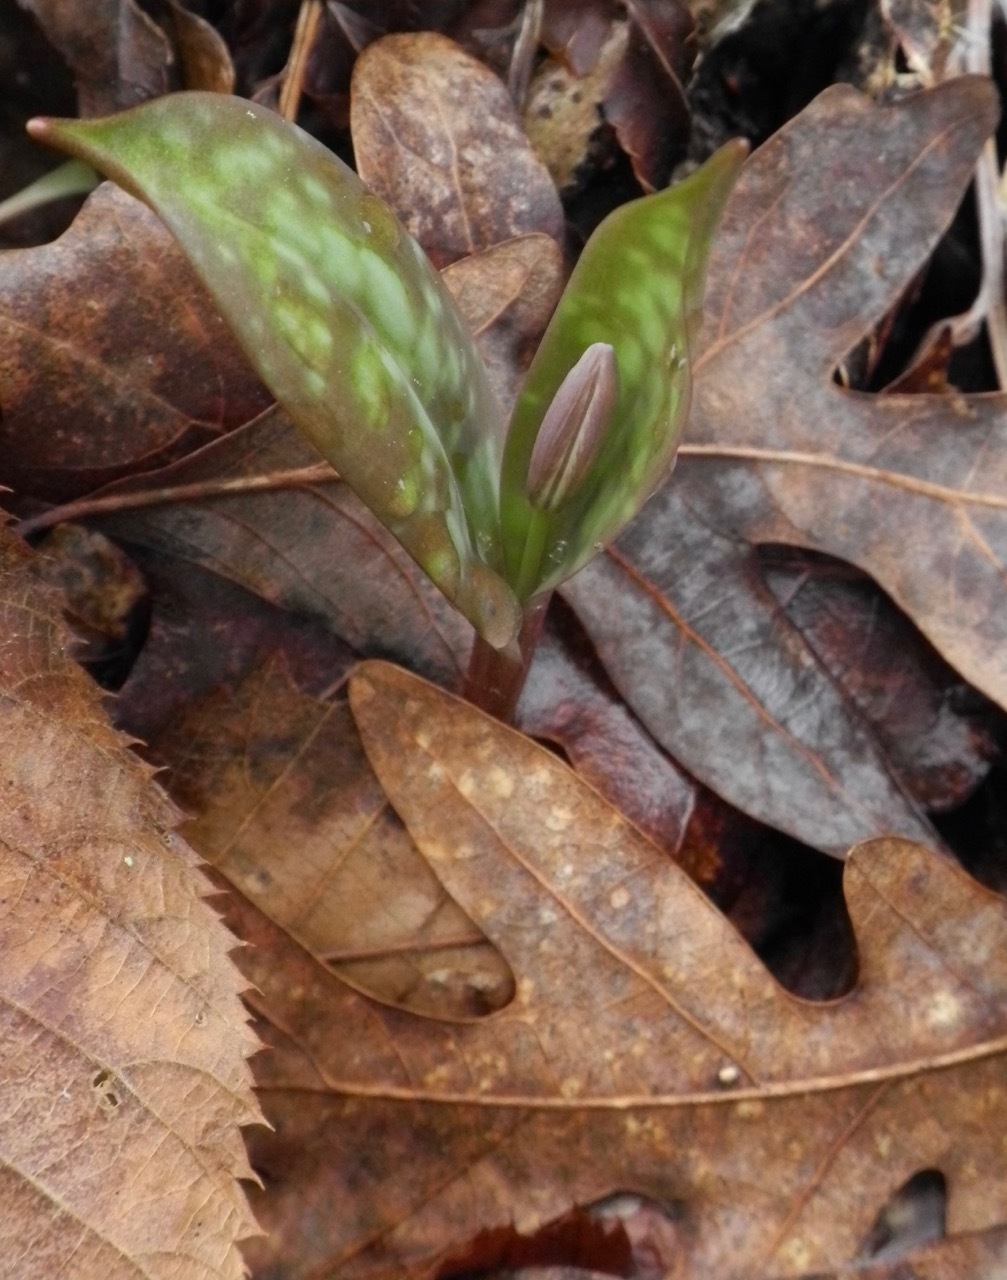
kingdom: Plantae
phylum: Tracheophyta
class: Liliopsida
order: Liliales
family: Liliaceae
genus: Erythronium
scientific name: Erythronium
